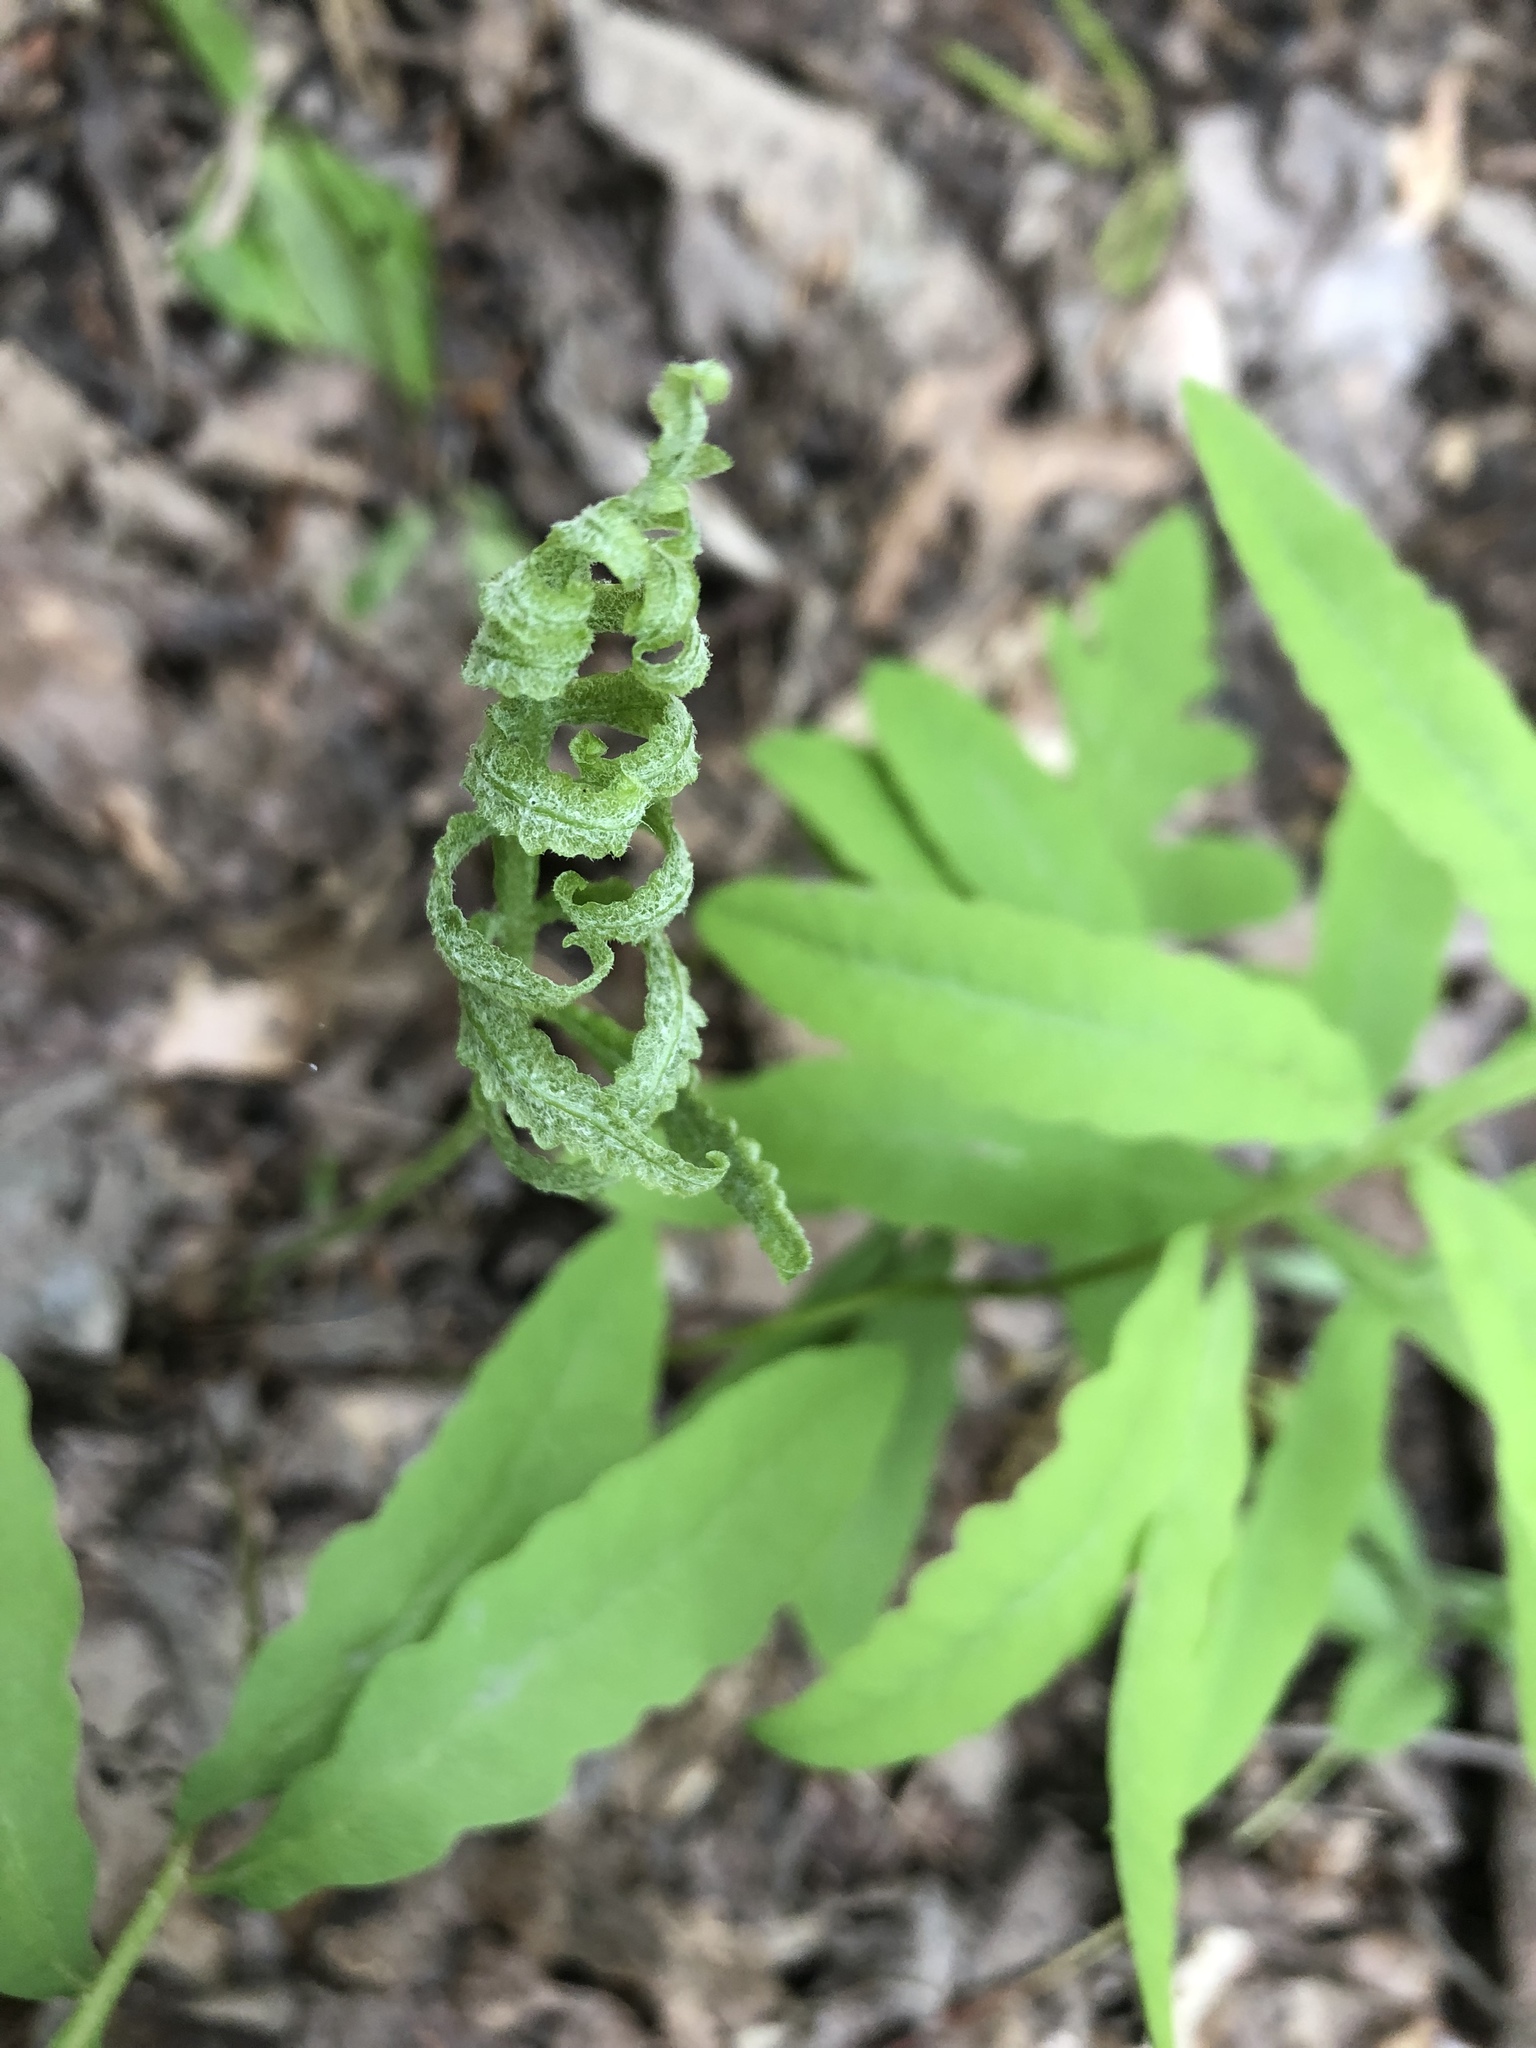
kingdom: Plantae
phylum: Tracheophyta
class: Polypodiopsida
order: Polypodiales
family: Onocleaceae
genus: Onoclea
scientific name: Onoclea sensibilis
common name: Sensitive fern
